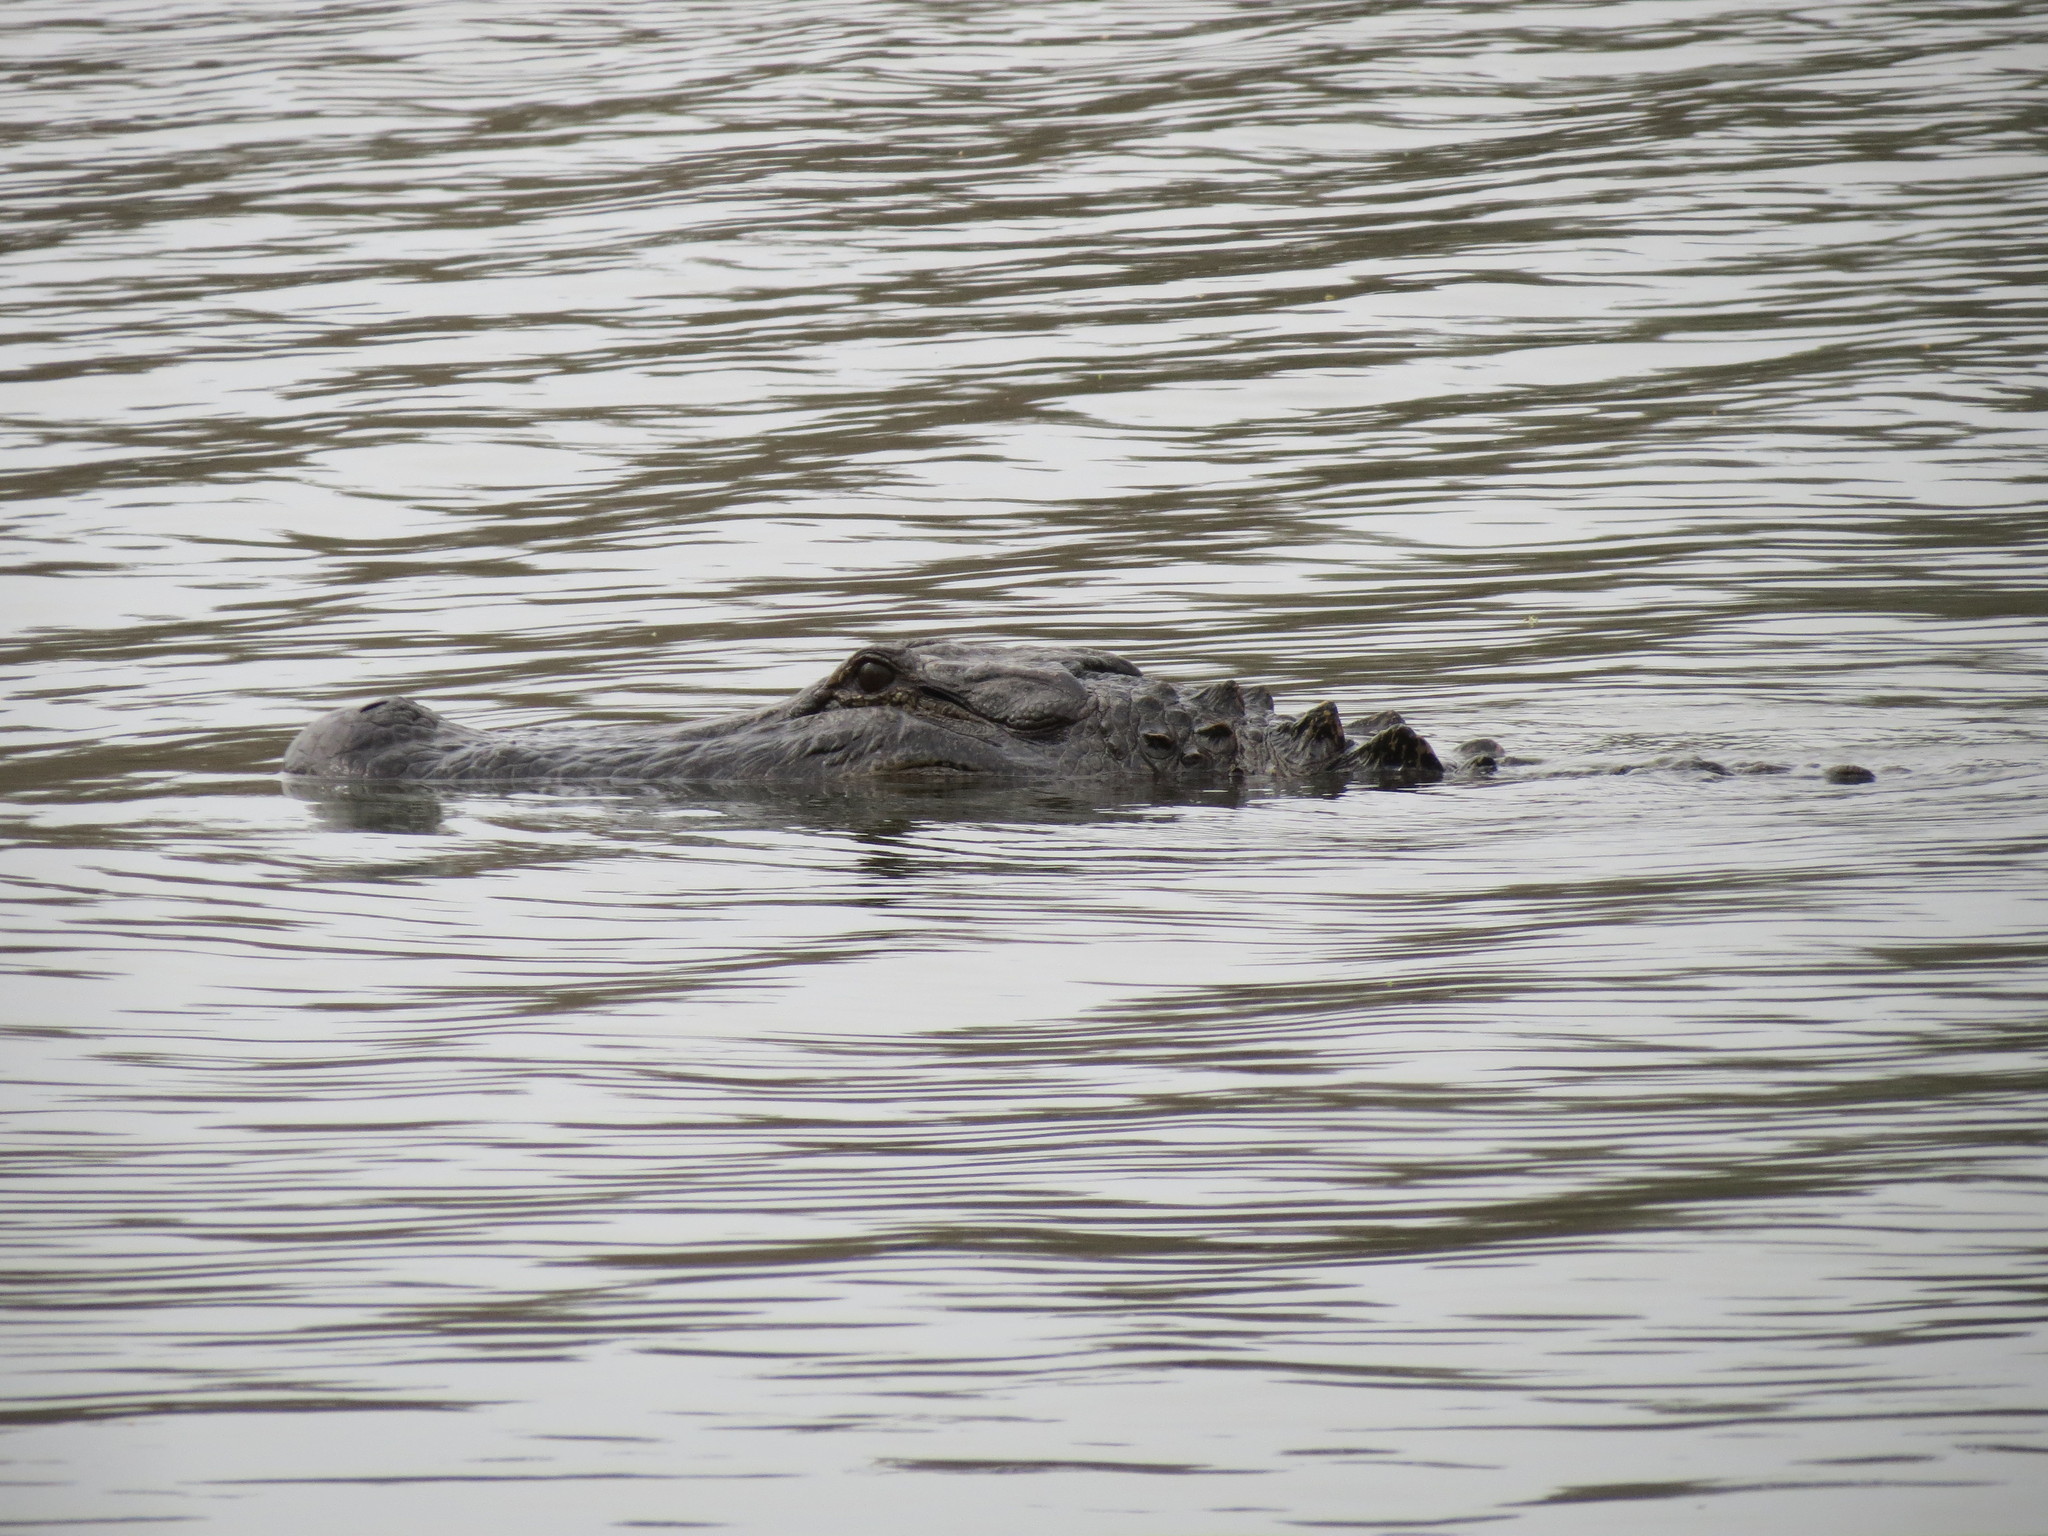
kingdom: Animalia
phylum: Chordata
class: Crocodylia
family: Alligatoridae
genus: Alligator
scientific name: Alligator mississippiensis
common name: American alligator
